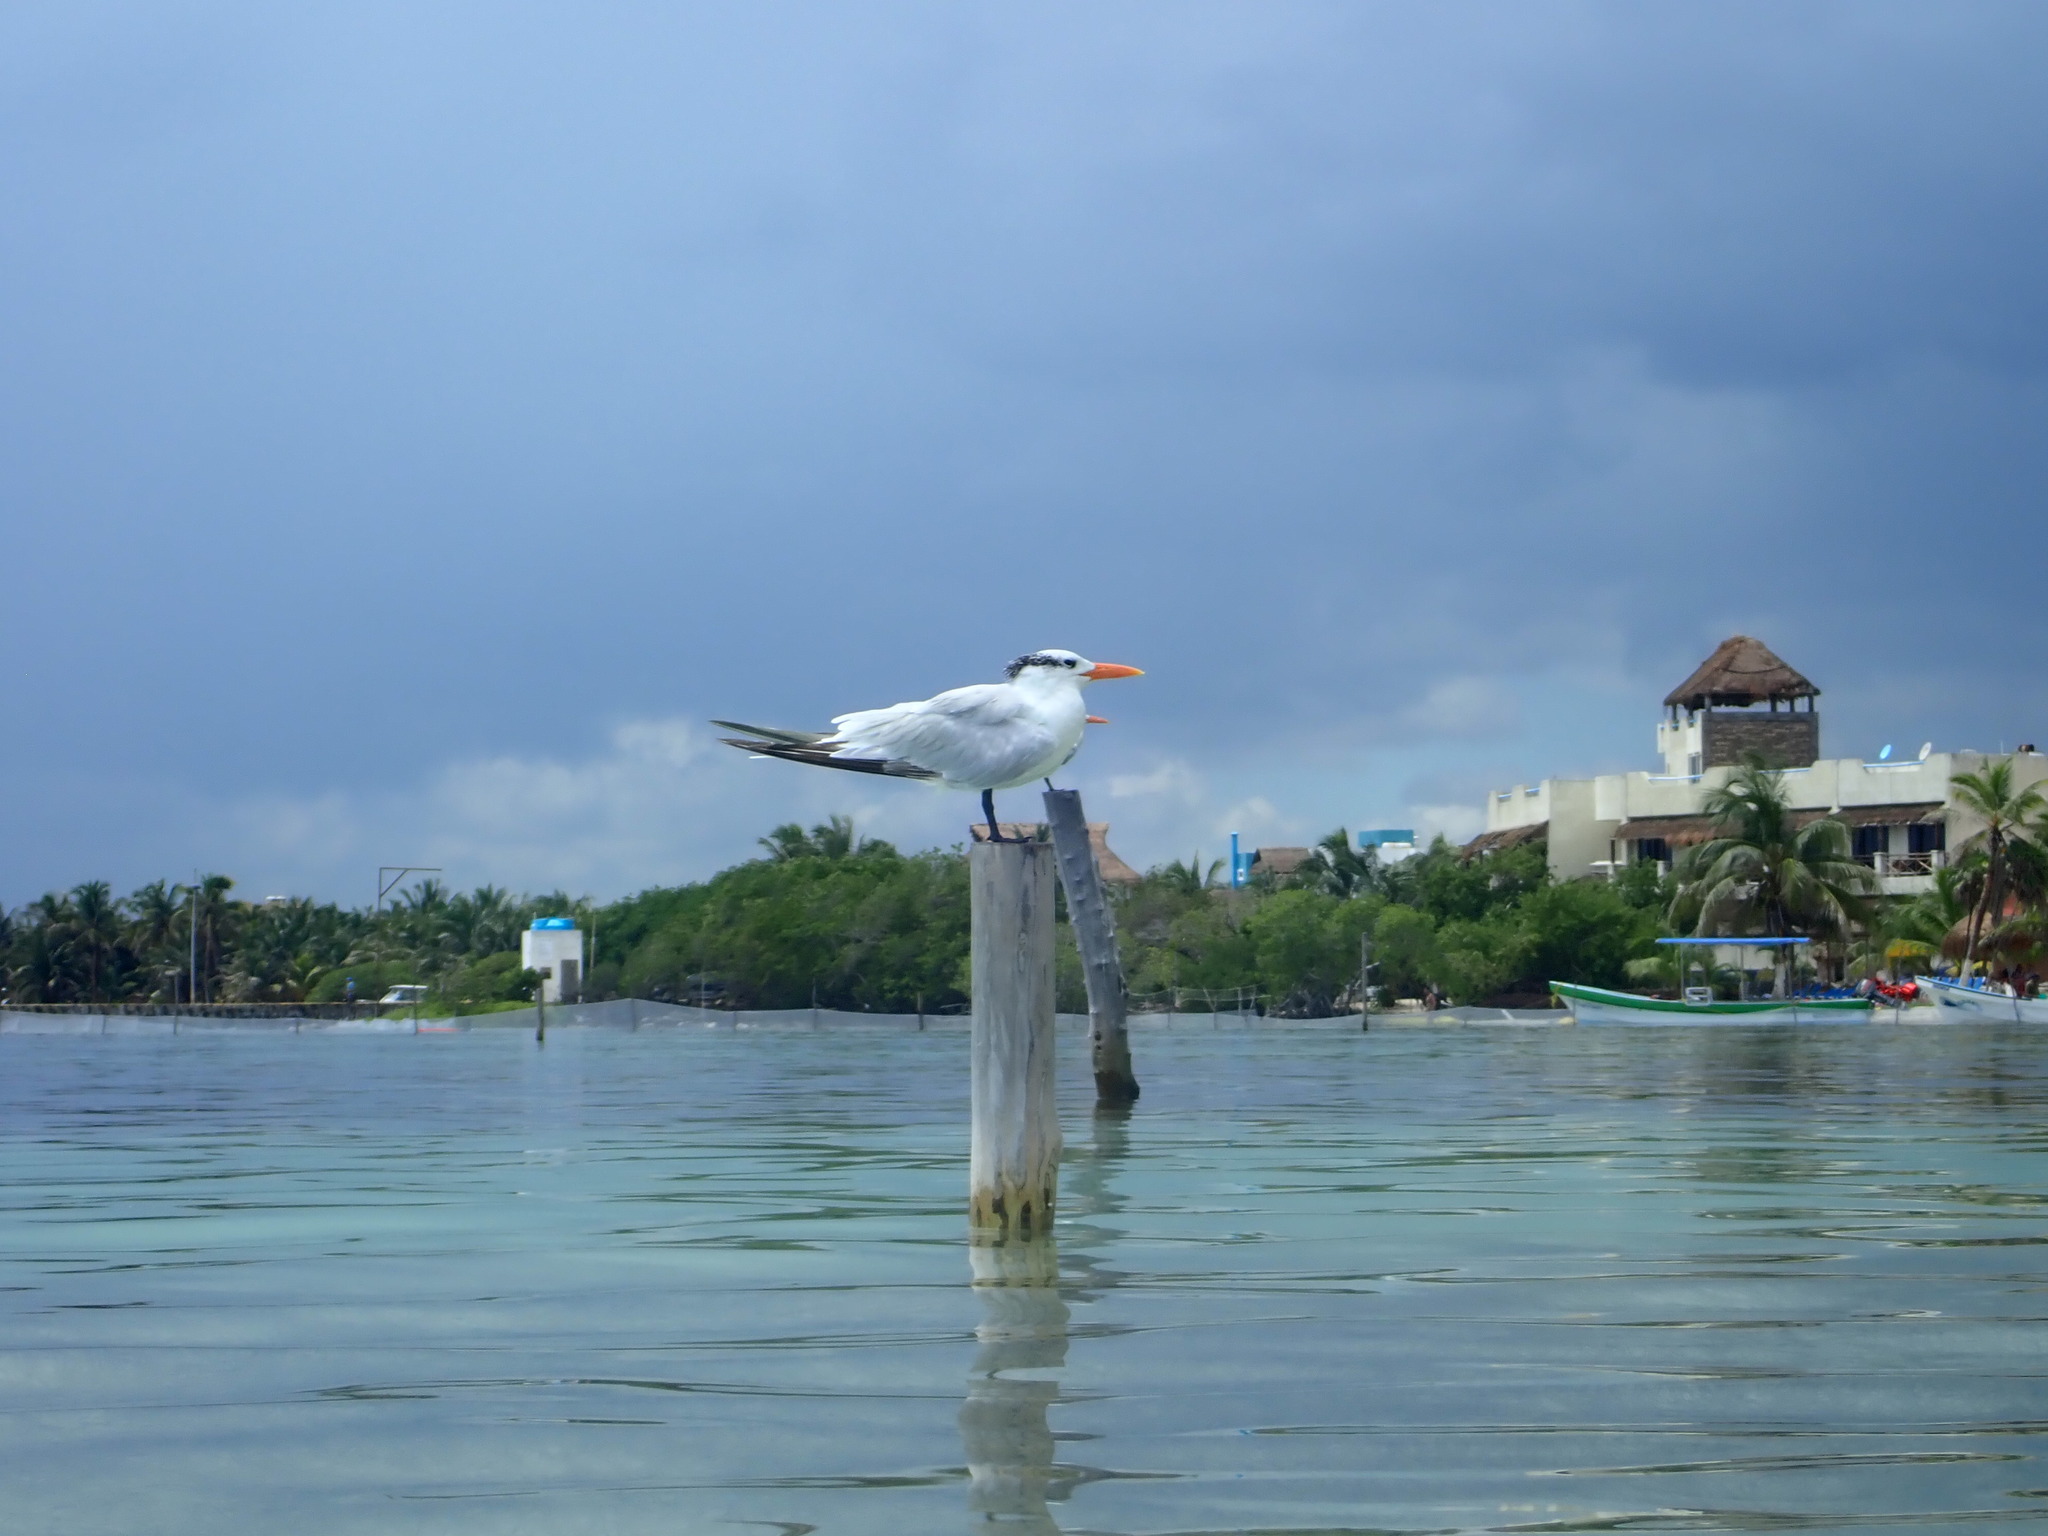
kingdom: Animalia
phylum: Chordata
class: Aves
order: Charadriiformes
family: Laridae
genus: Thalasseus
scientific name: Thalasseus maximus
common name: Royal tern
